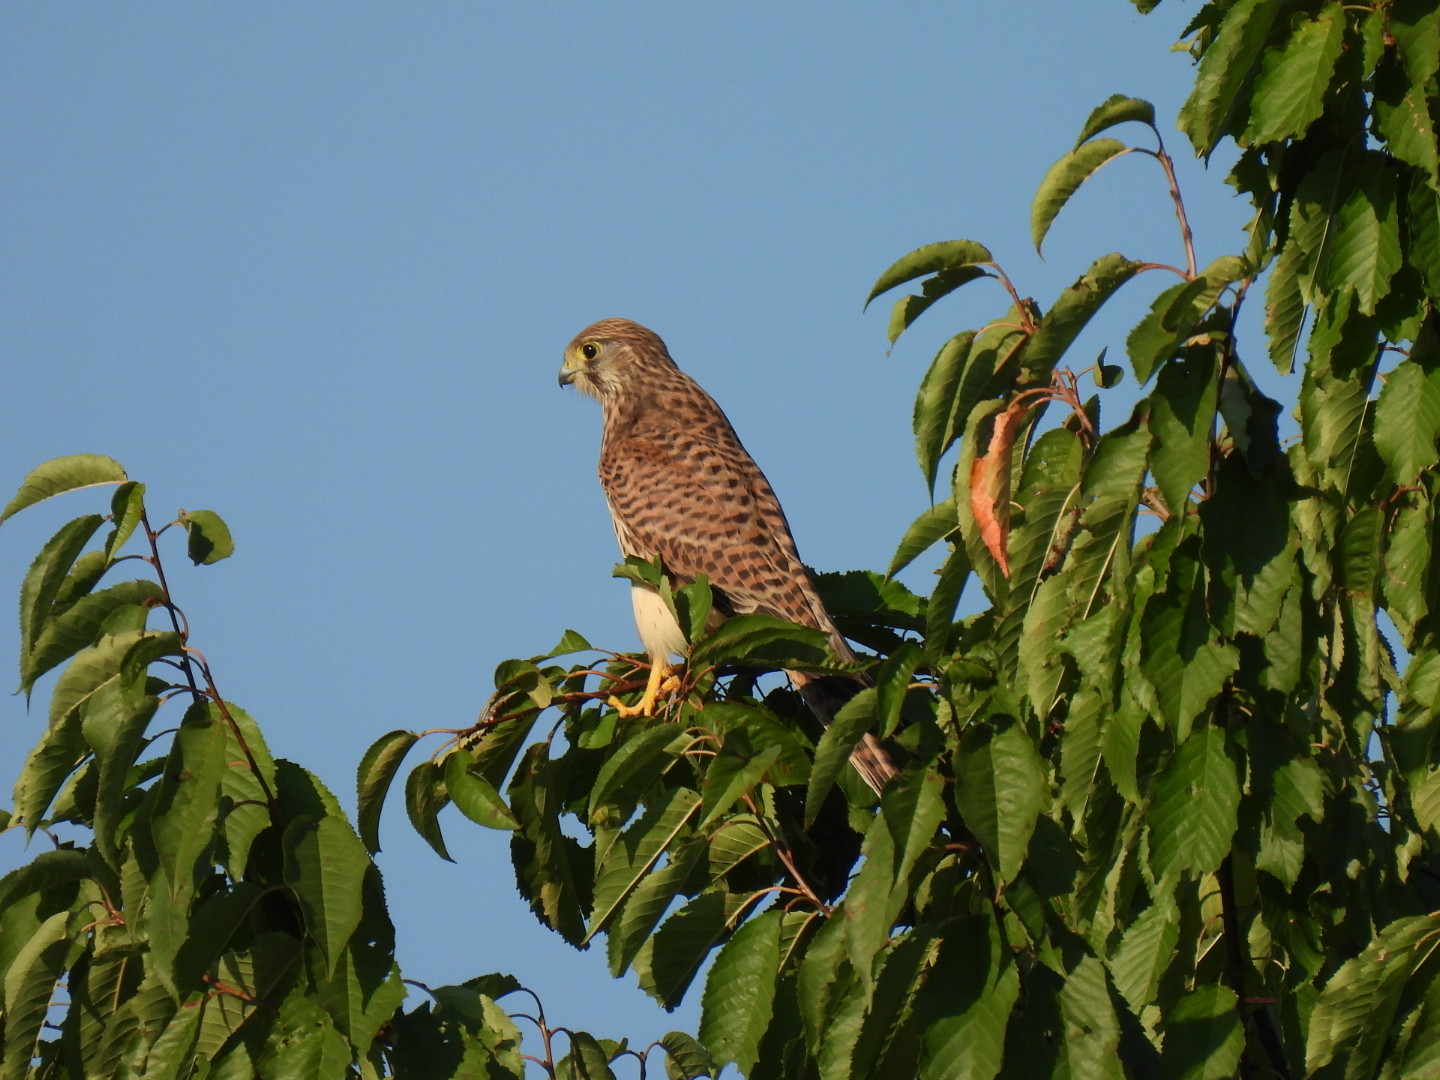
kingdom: Animalia
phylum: Chordata
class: Aves
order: Falconiformes
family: Falconidae
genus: Falco
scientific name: Falco tinnunculus
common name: Common kestrel
